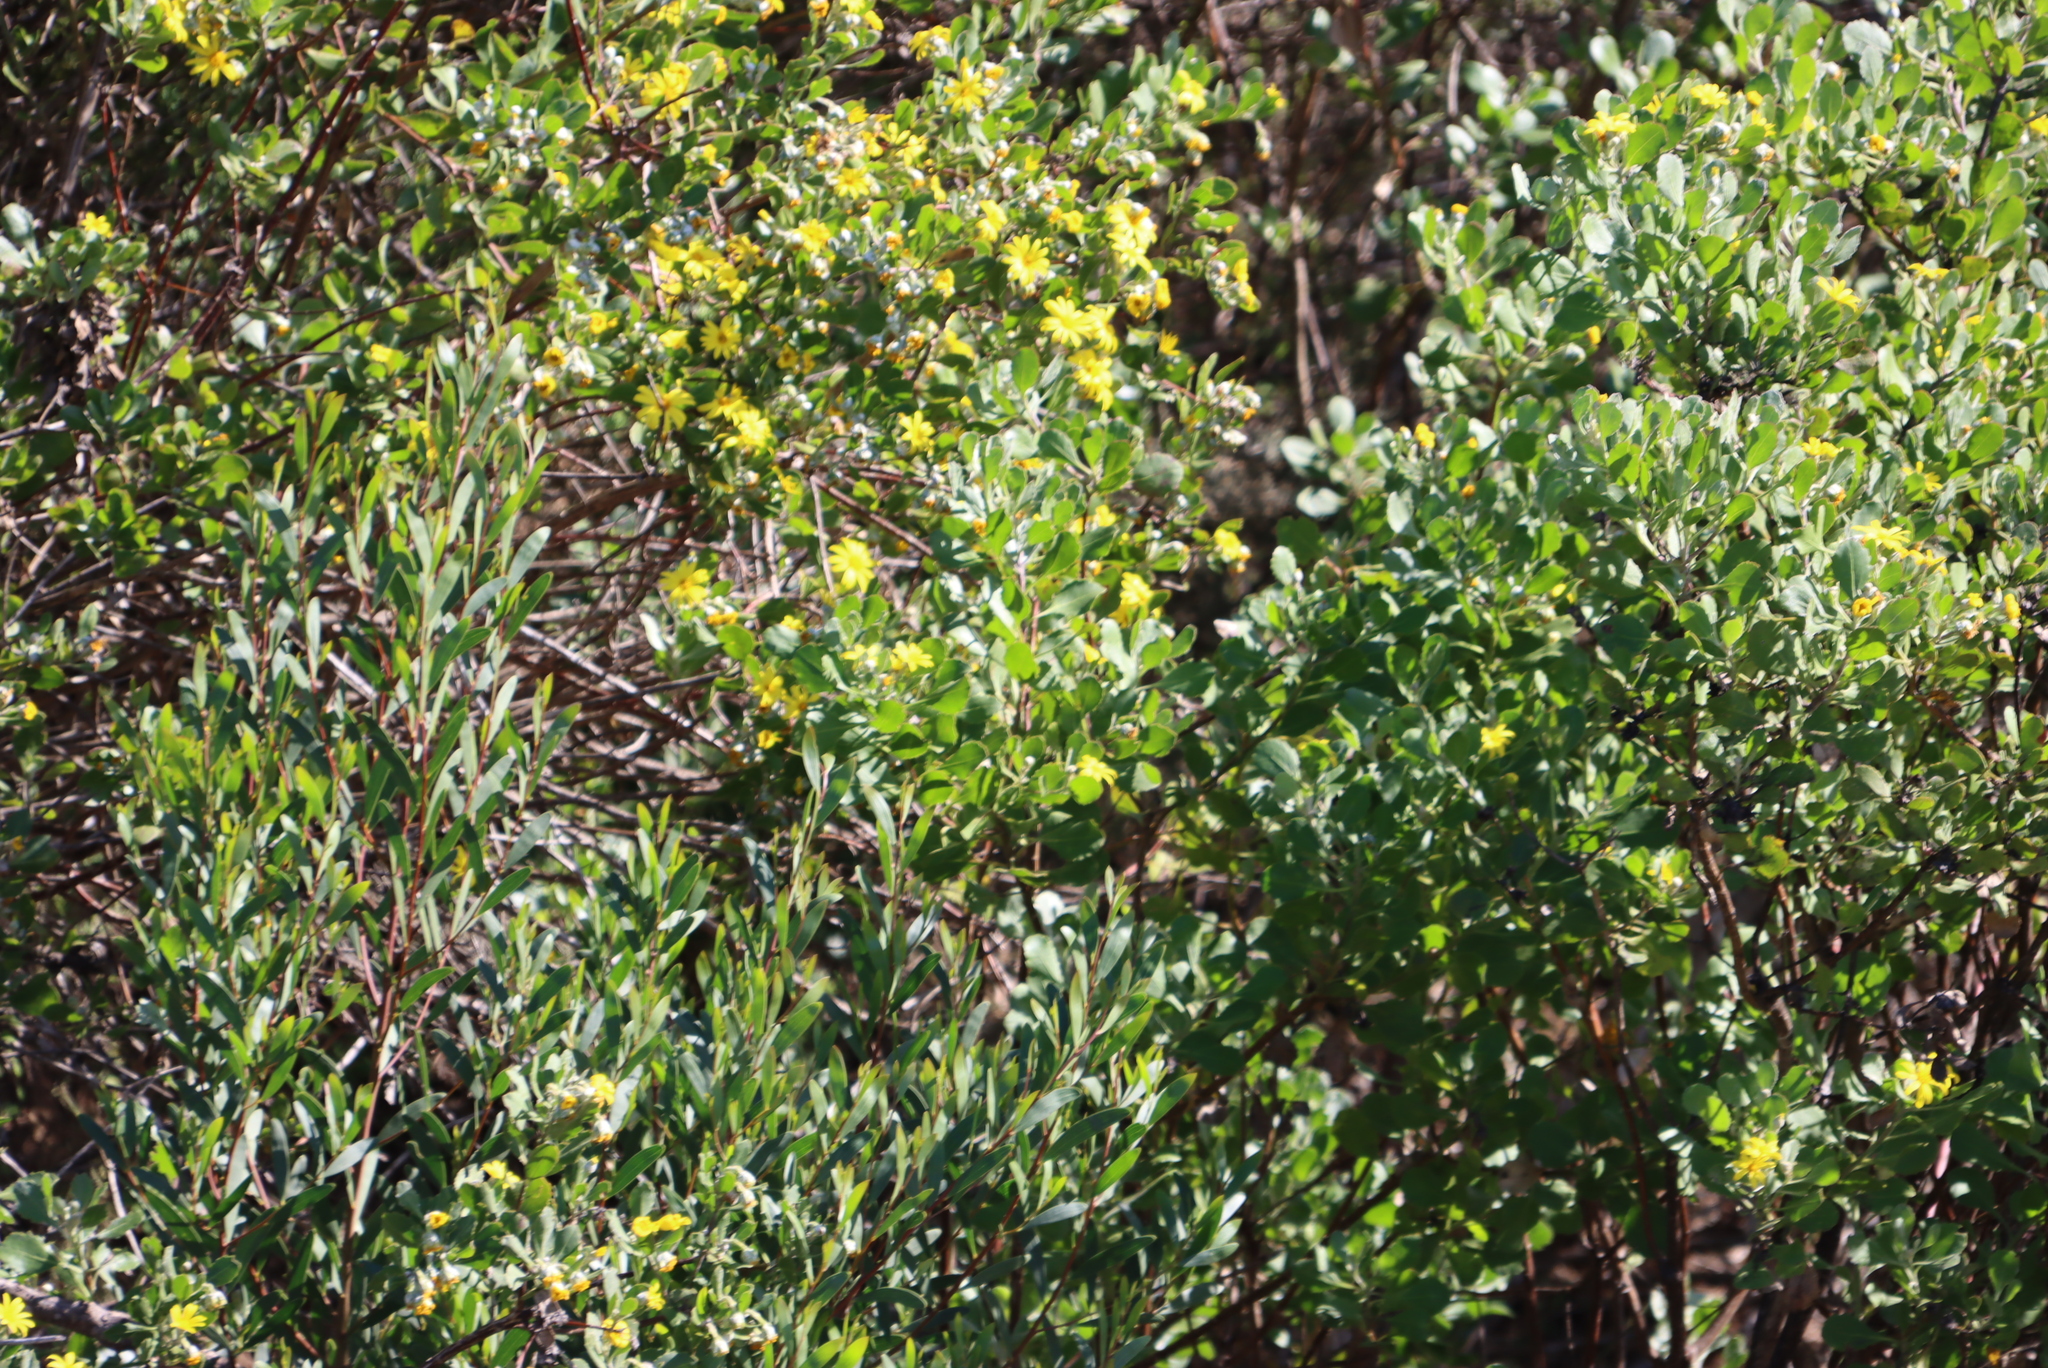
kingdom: Plantae
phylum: Tracheophyta
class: Magnoliopsida
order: Fabales
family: Fabaceae
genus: Acacia
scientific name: Acacia cyclops
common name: Coastal wattle
